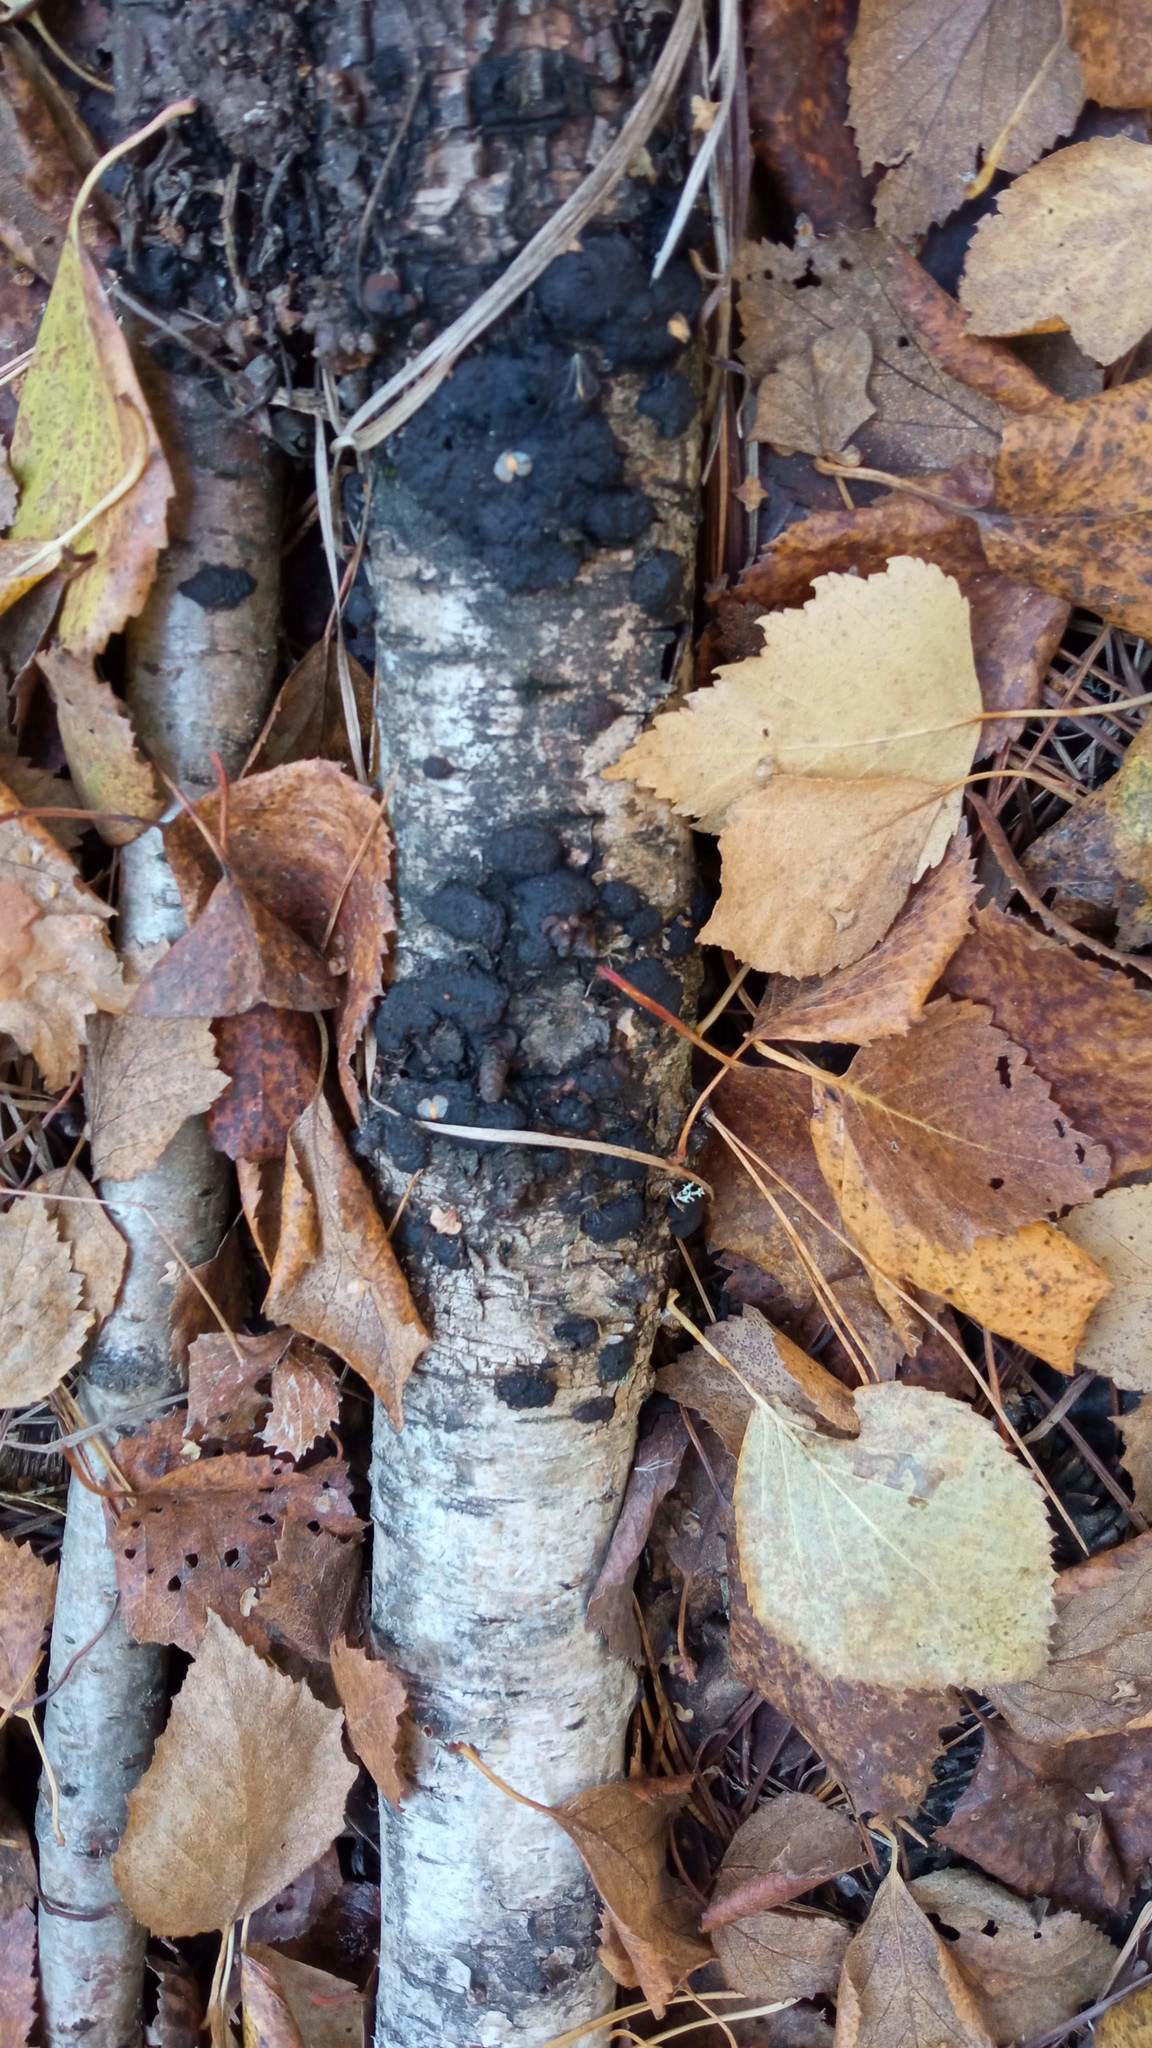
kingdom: Fungi
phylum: Ascomycota
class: Sordariomycetes
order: Xylariales
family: Hypoxylaceae
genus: Jackrogersella
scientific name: Jackrogersella multiformis
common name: Birch woodwart
